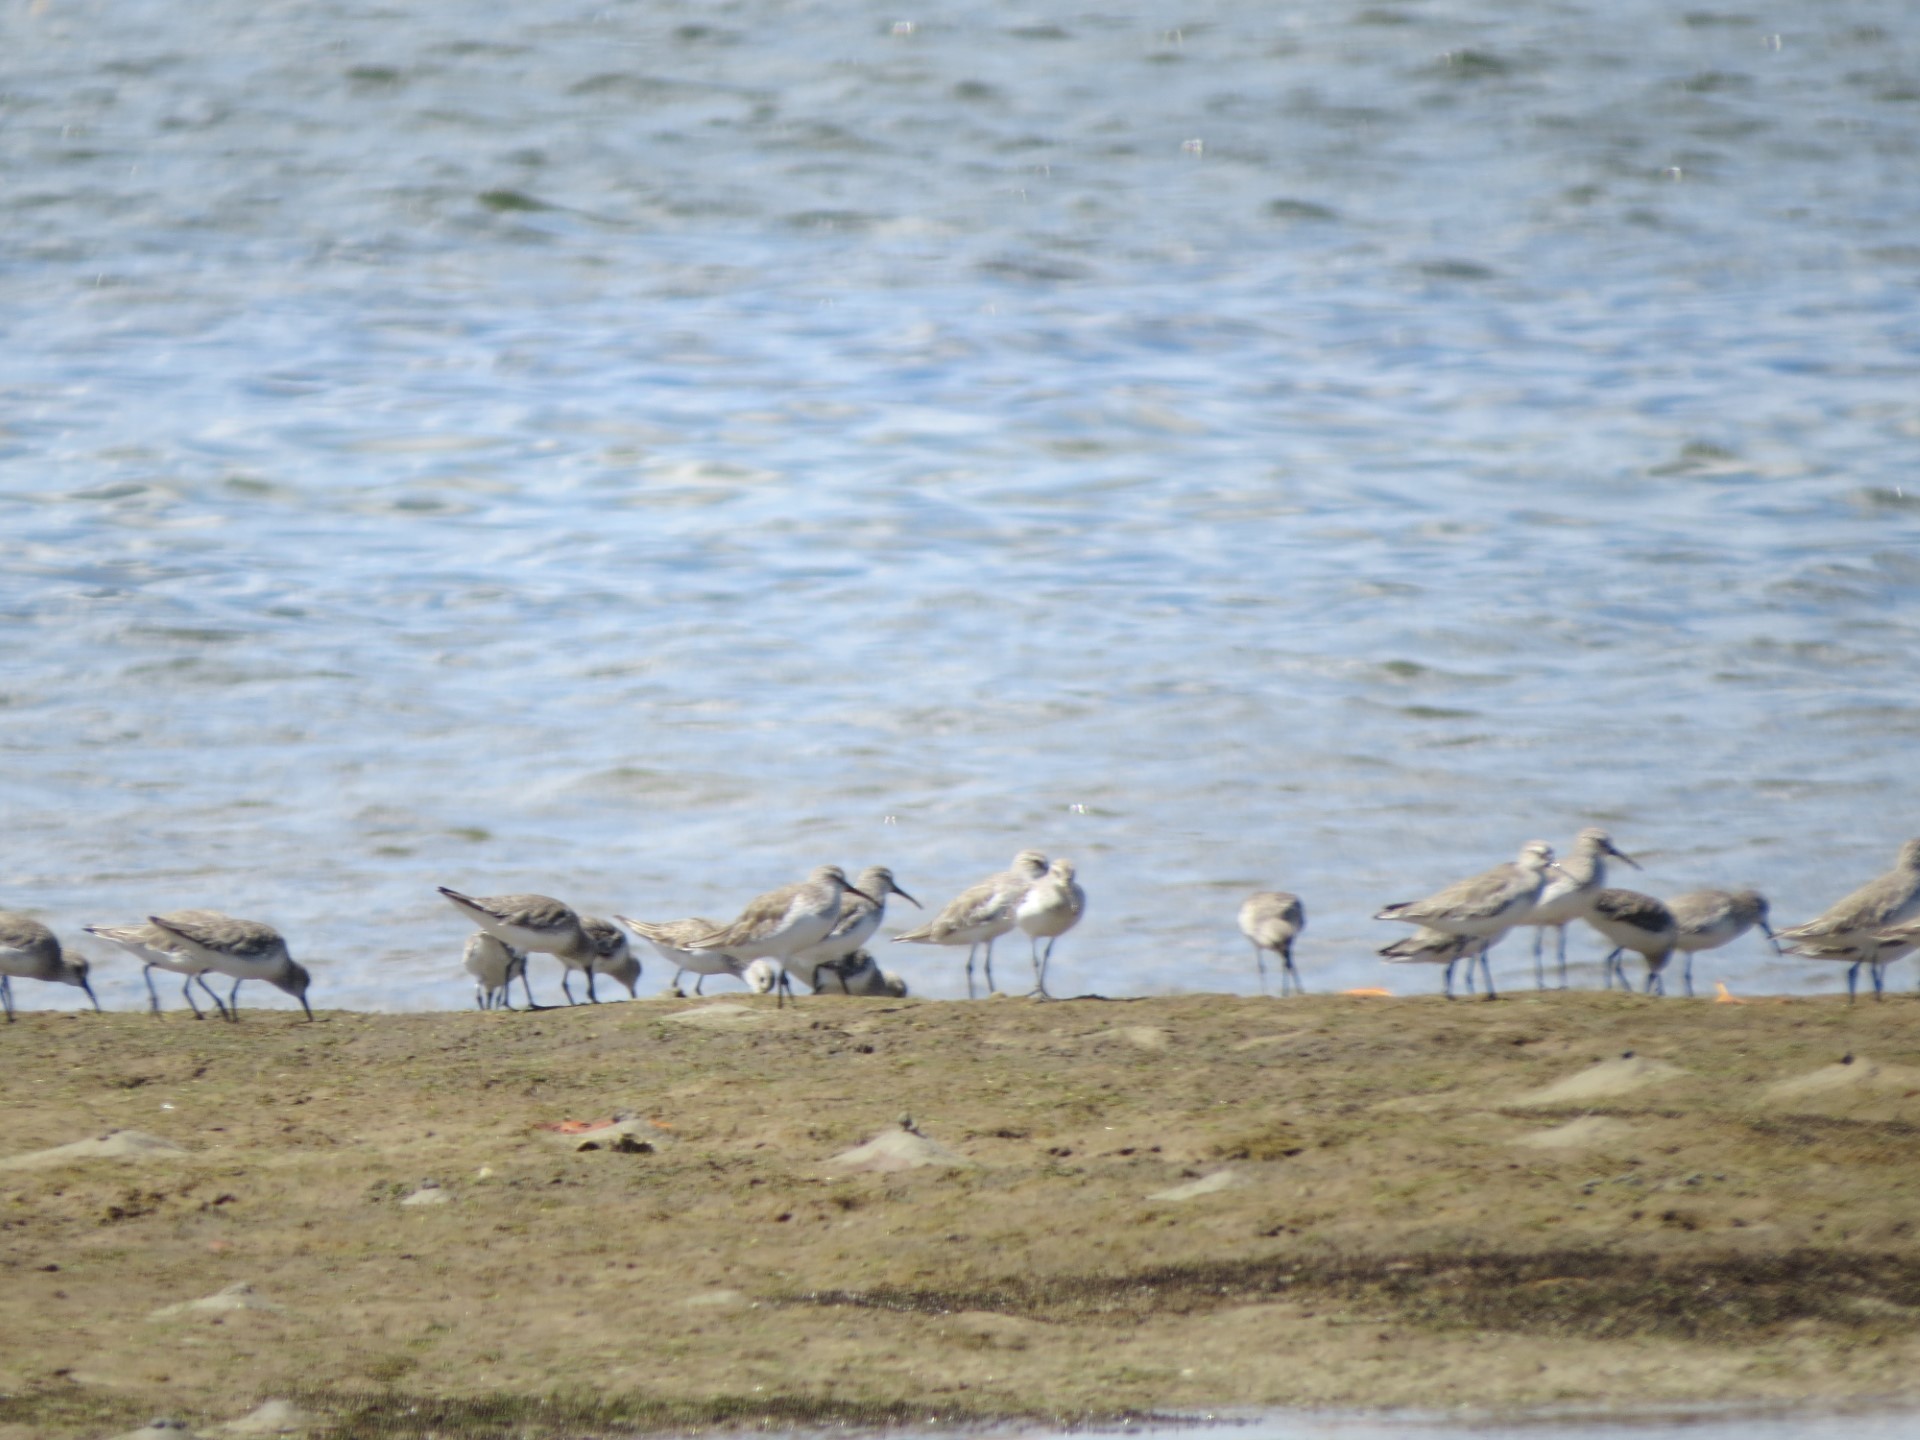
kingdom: Animalia
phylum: Chordata
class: Aves
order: Charadriiformes
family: Scolopacidae
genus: Calidris
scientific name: Calidris ferruginea
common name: Curlew sandpiper
